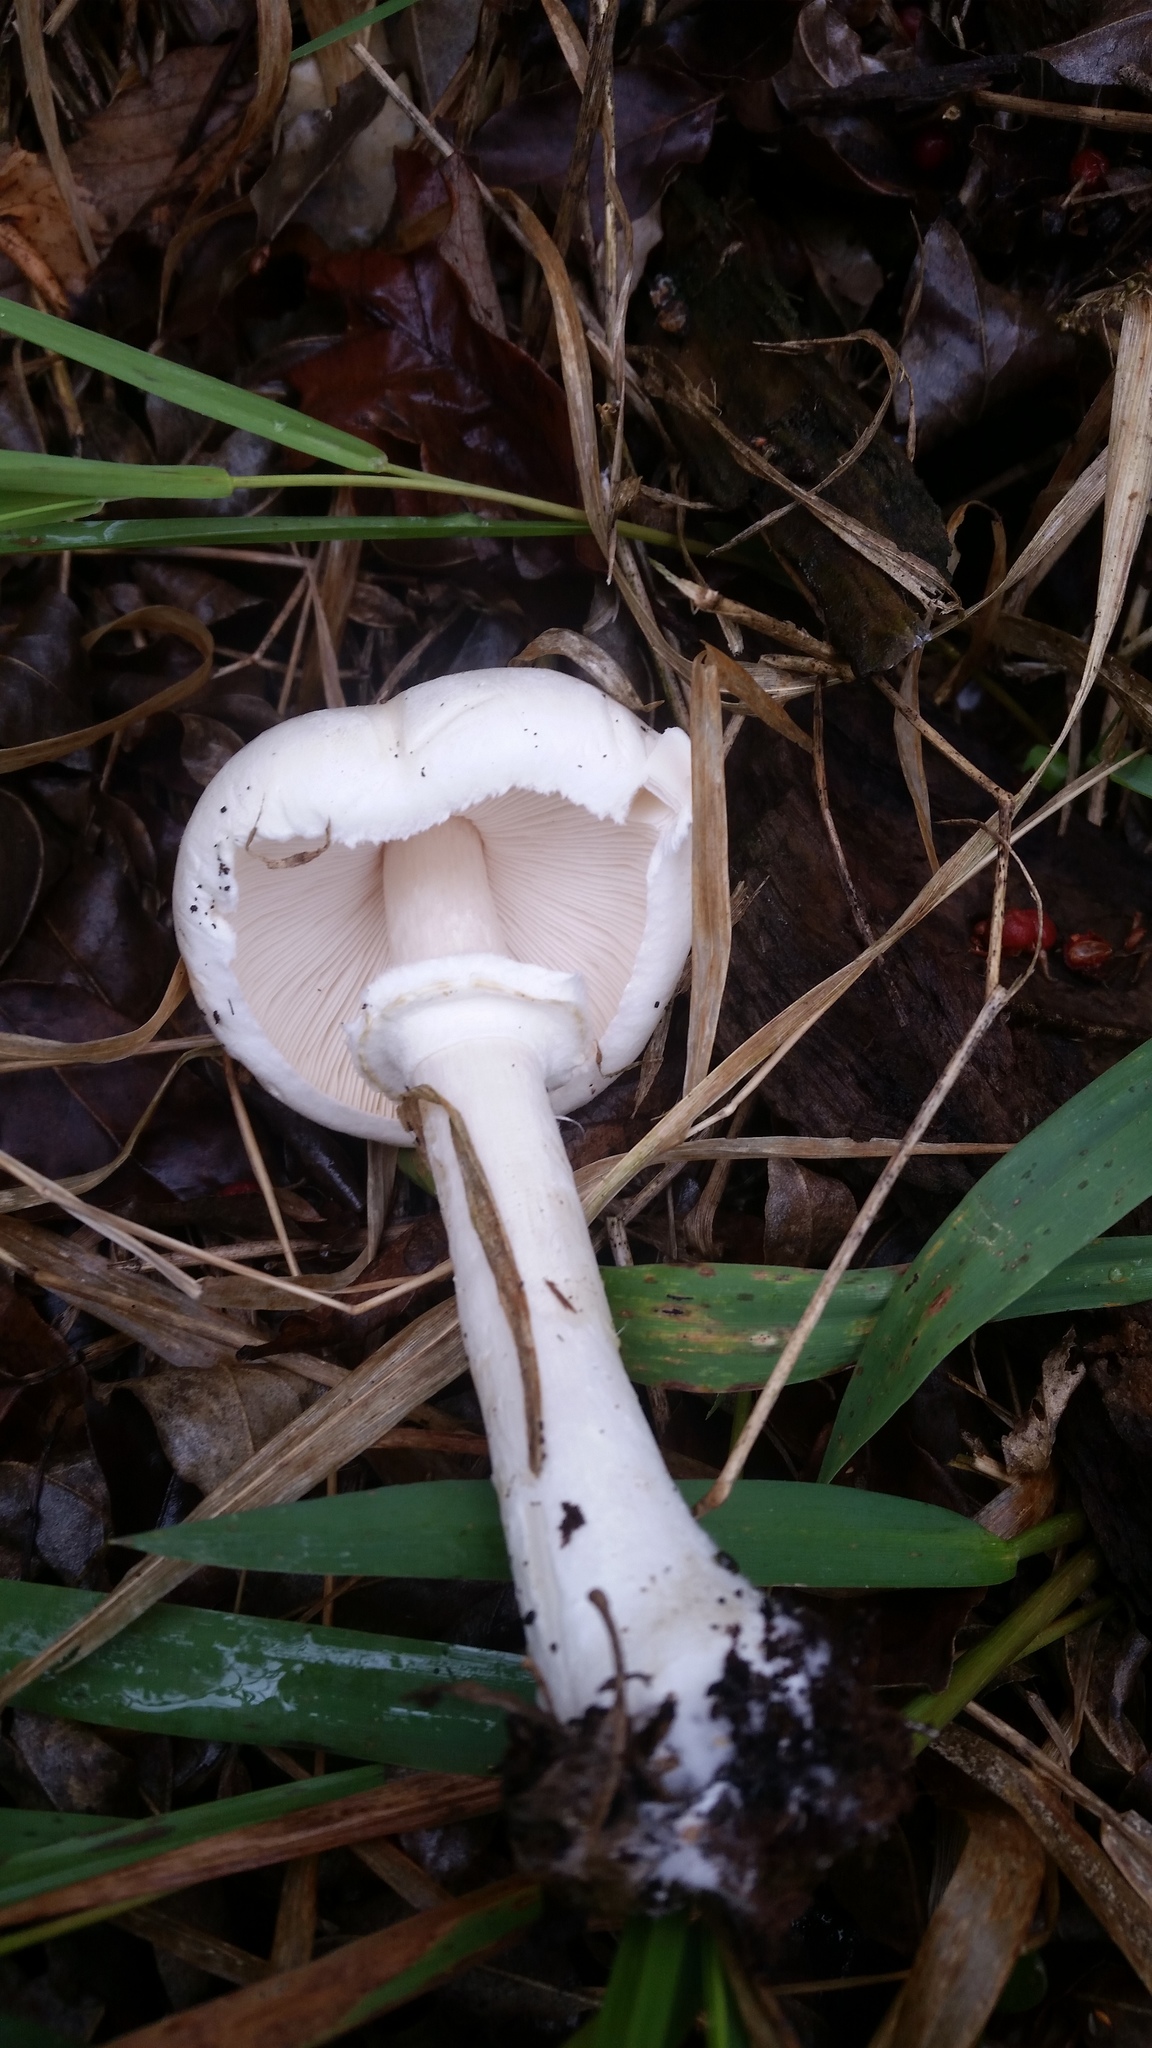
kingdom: Fungi
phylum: Basidiomycota
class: Agaricomycetes
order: Agaricales
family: Agaricaceae
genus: Leucoagaricus
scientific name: Leucoagaricus leucothites
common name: White dapperling
